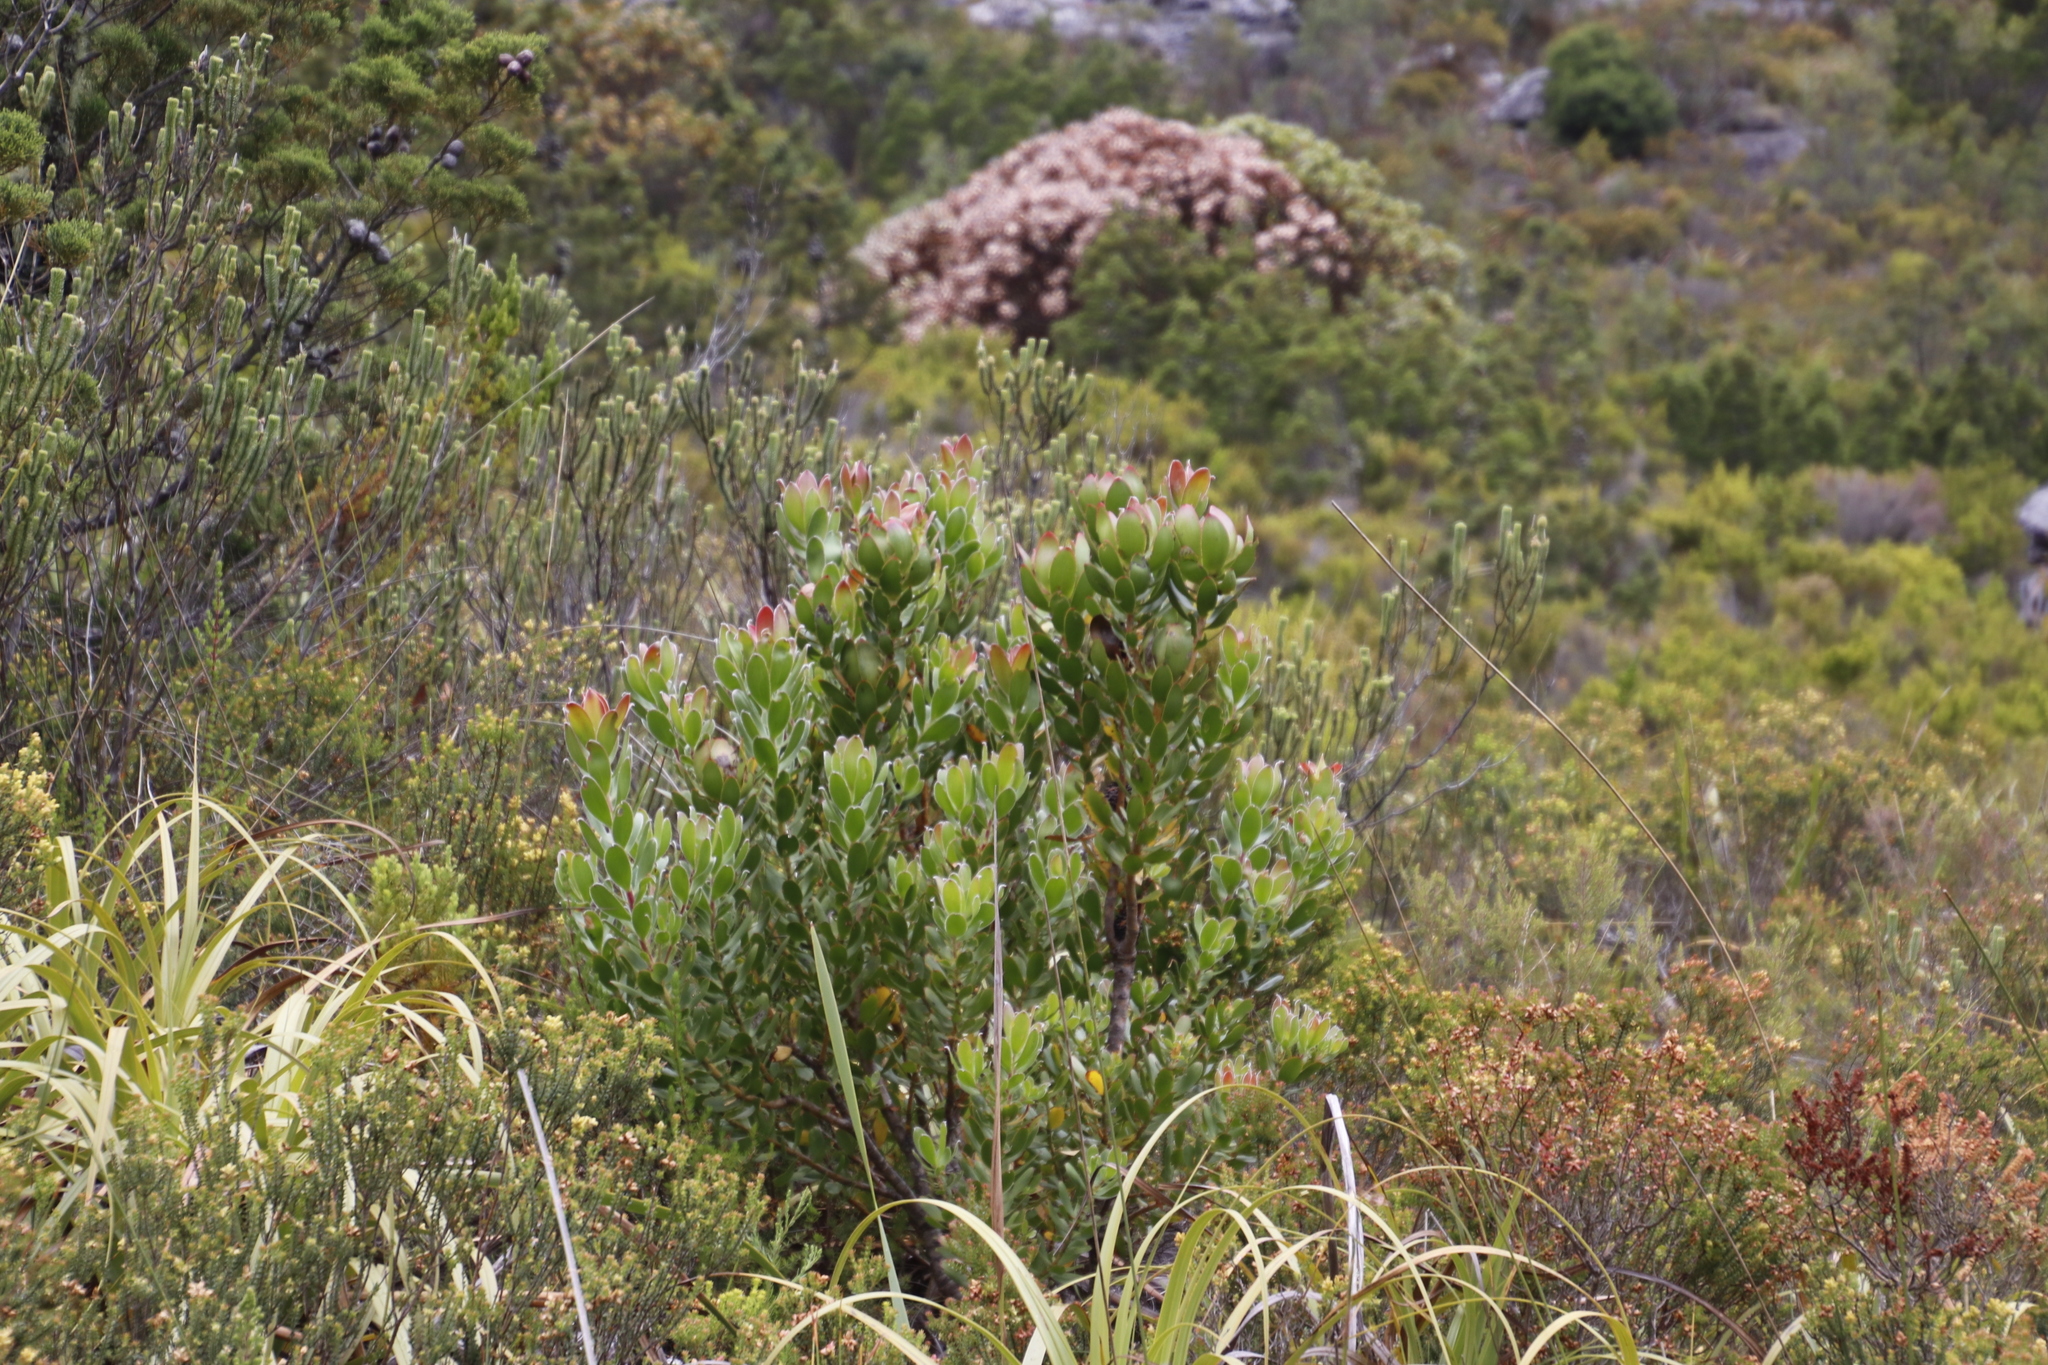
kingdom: Plantae
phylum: Tracheophyta
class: Magnoliopsida
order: Proteales
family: Proteaceae
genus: Leucadendron
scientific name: Leucadendron strobilinum
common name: Mountain rose
